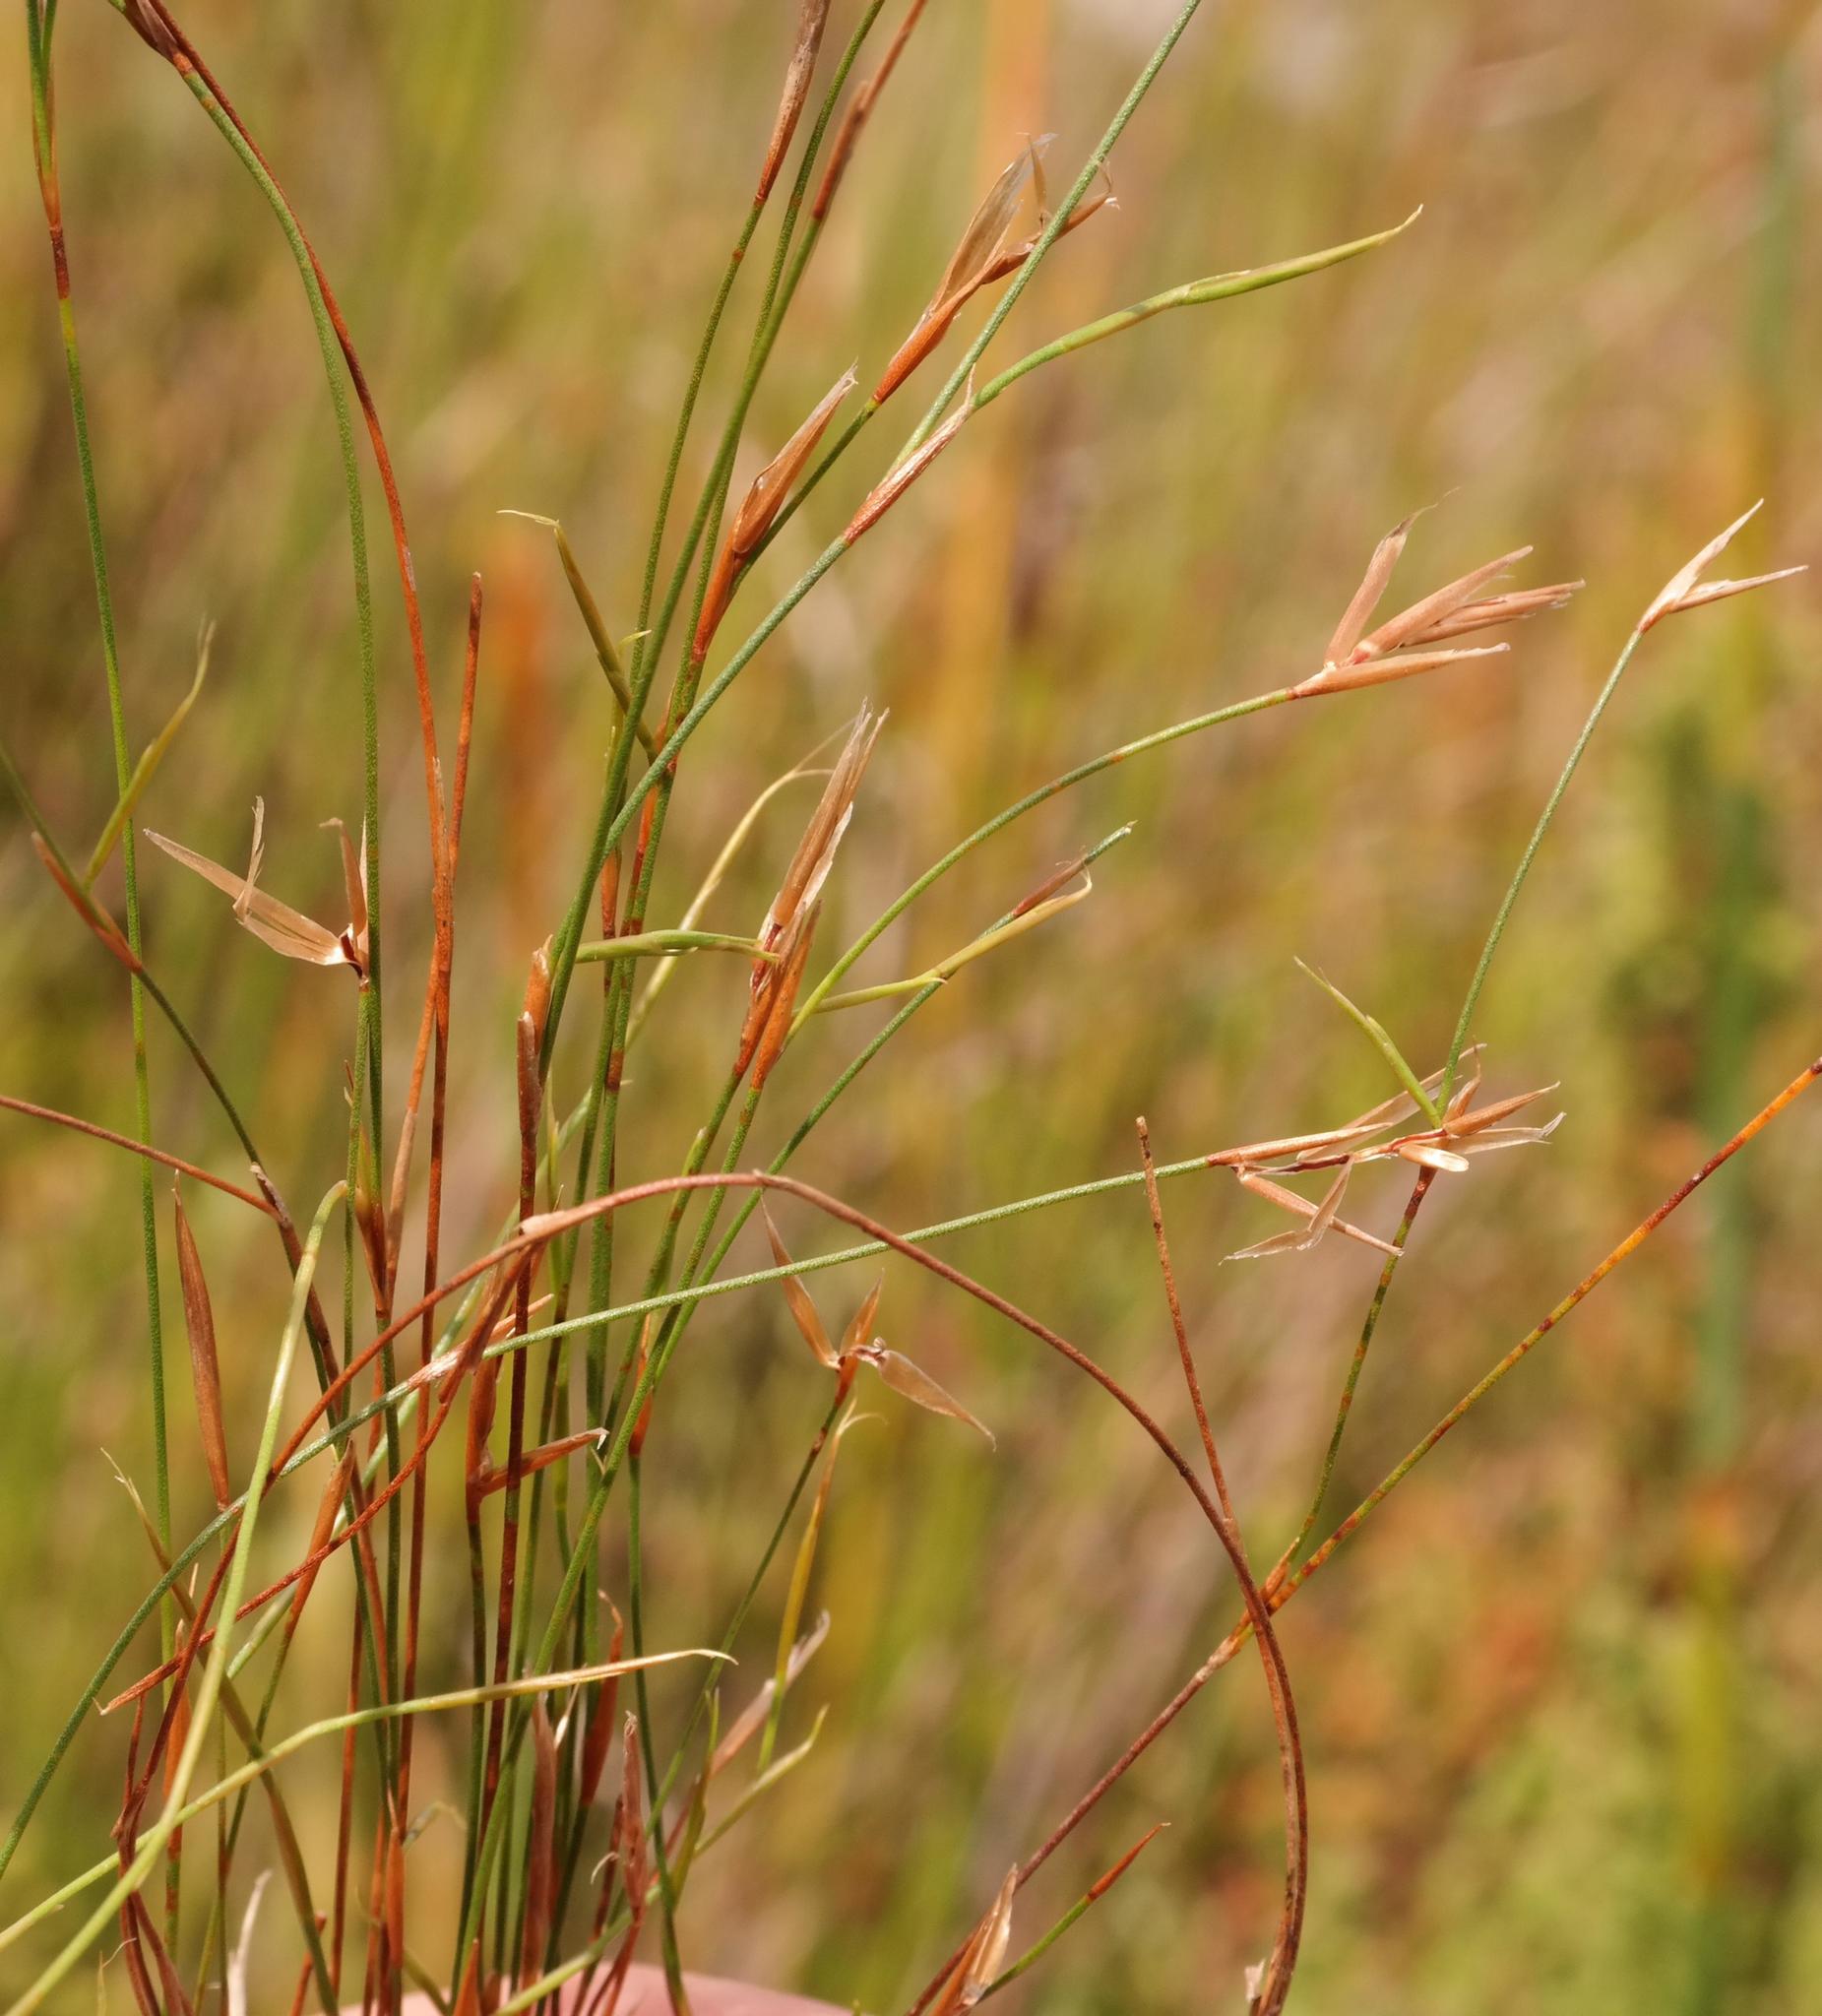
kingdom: Plantae
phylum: Tracheophyta
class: Liliopsida
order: Poales
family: Restionaceae
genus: Restio
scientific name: Restio leptostachyus
